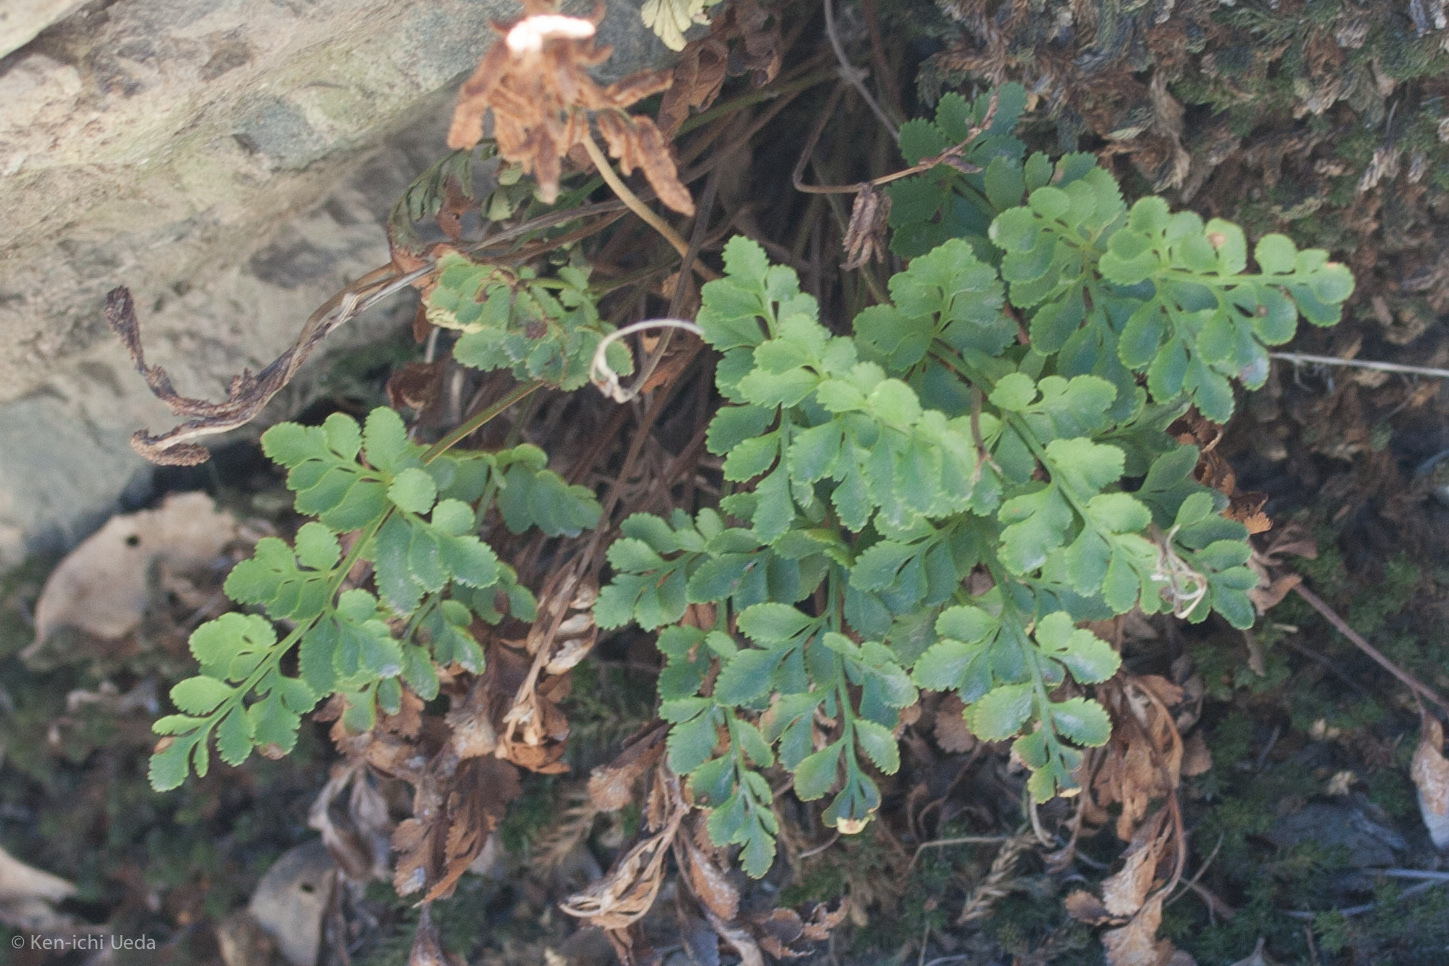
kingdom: Plantae
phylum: Tracheophyta
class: Polypodiopsida
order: Polypodiales
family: Pteridaceae
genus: Cryptogramma
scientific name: Cryptogramma acrostichoides
